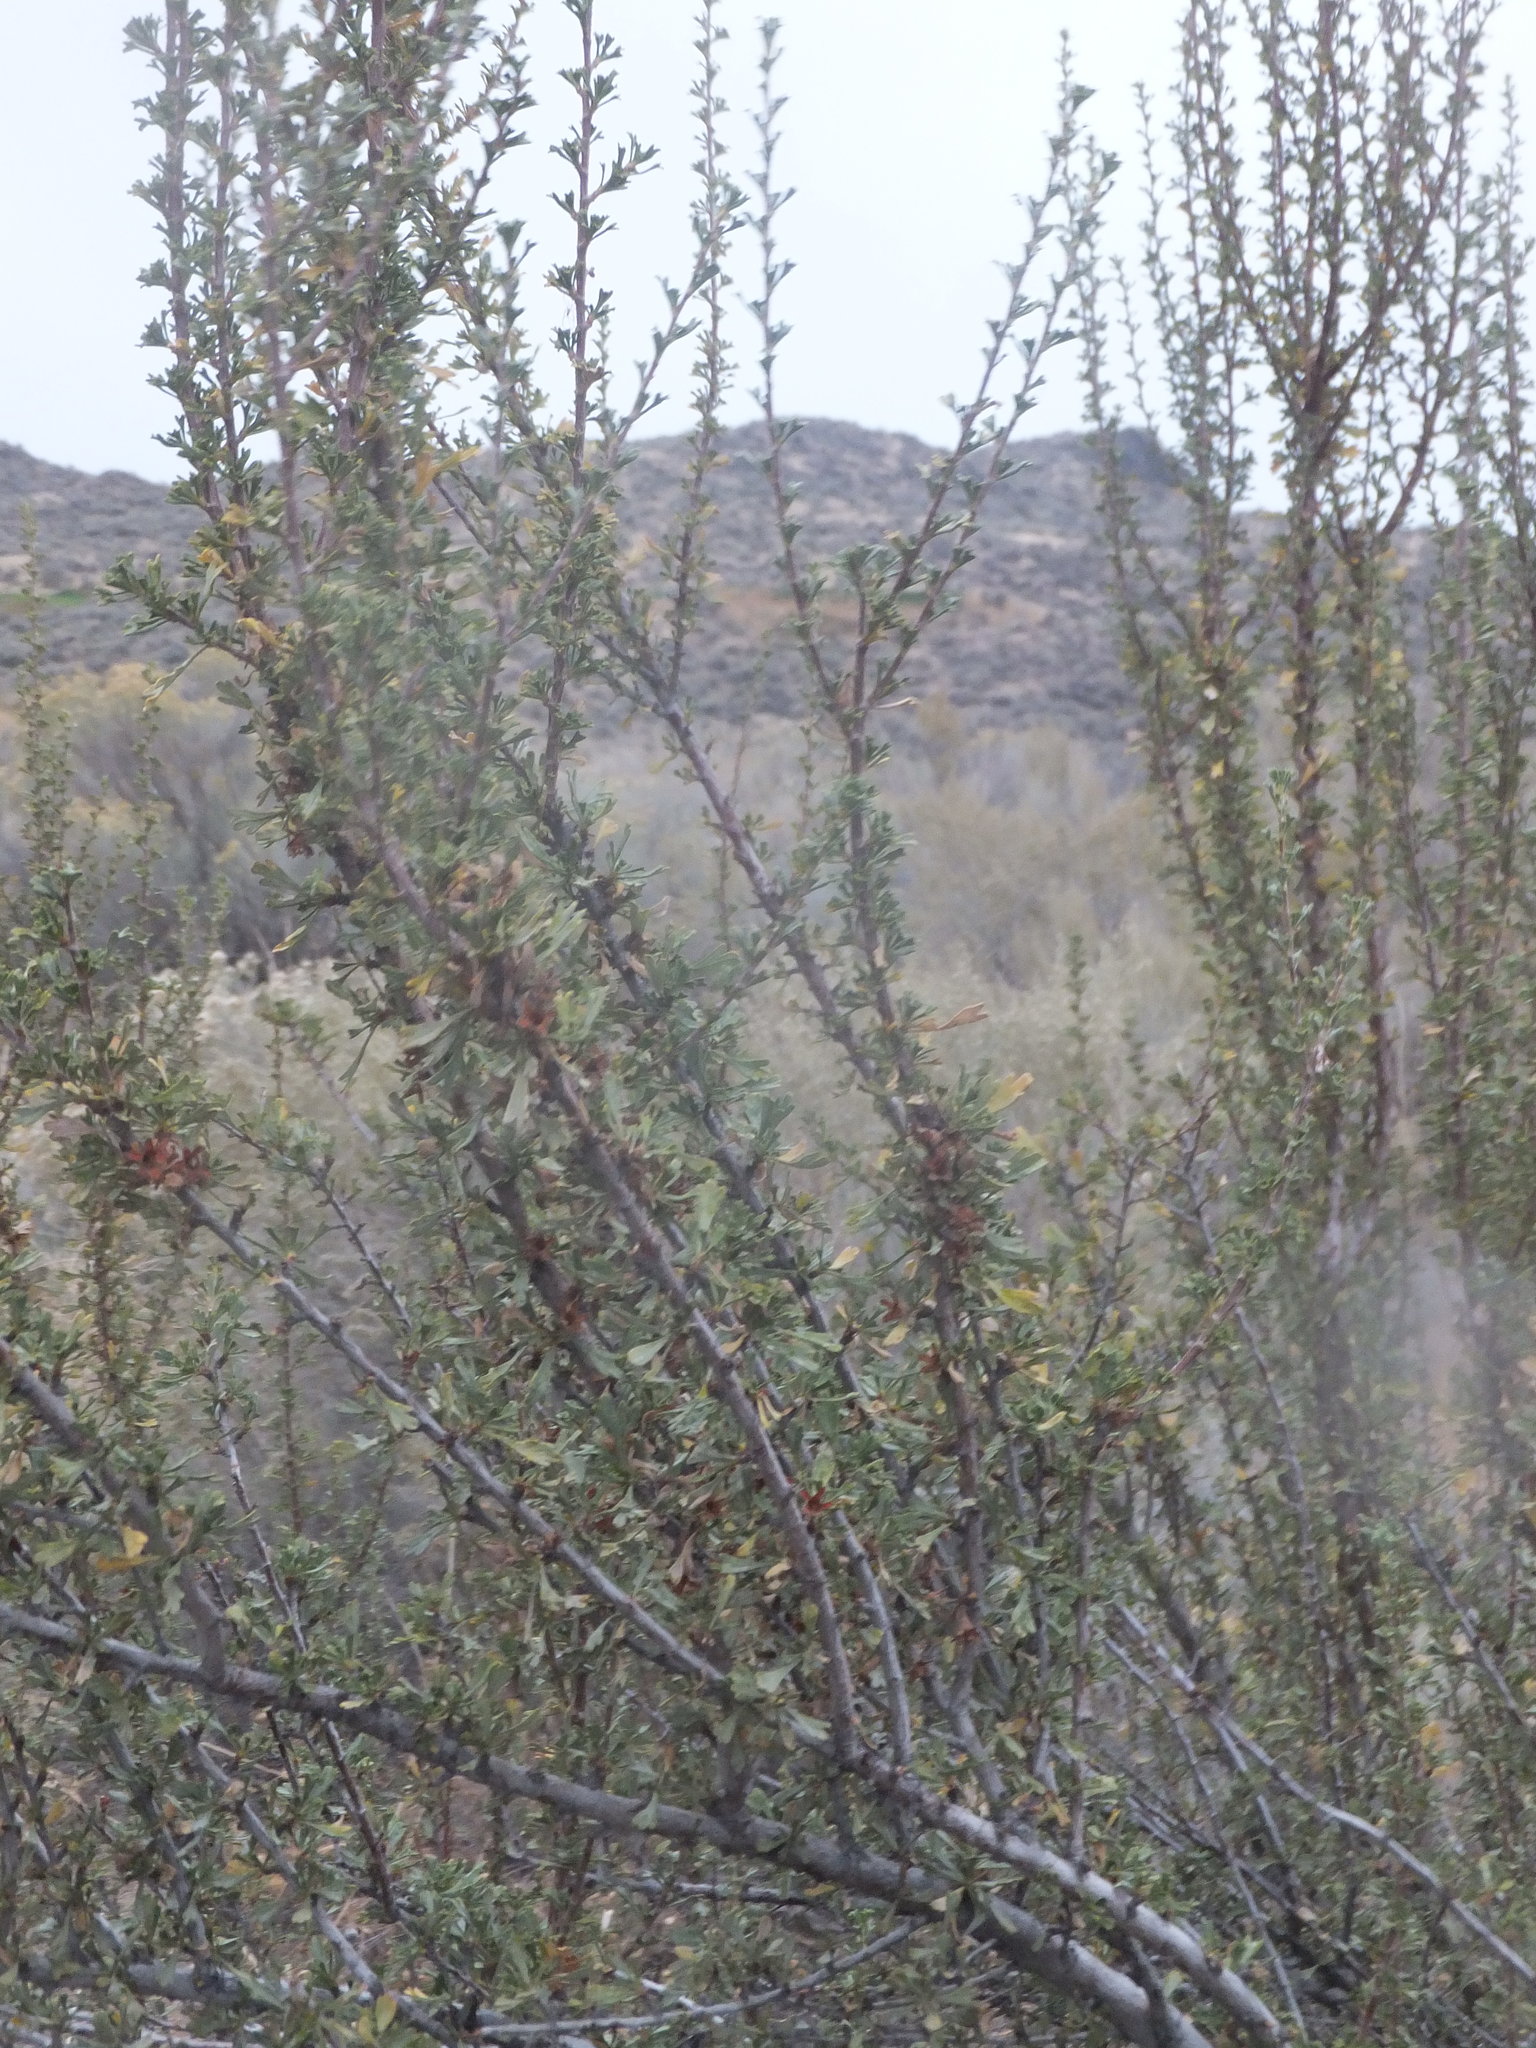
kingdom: Plantae
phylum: Tracheophyta
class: Magnoliopsida
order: Rosales
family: Rosaceae
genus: Purshia
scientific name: Purshia tridentata
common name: Antelope bitterbrush
